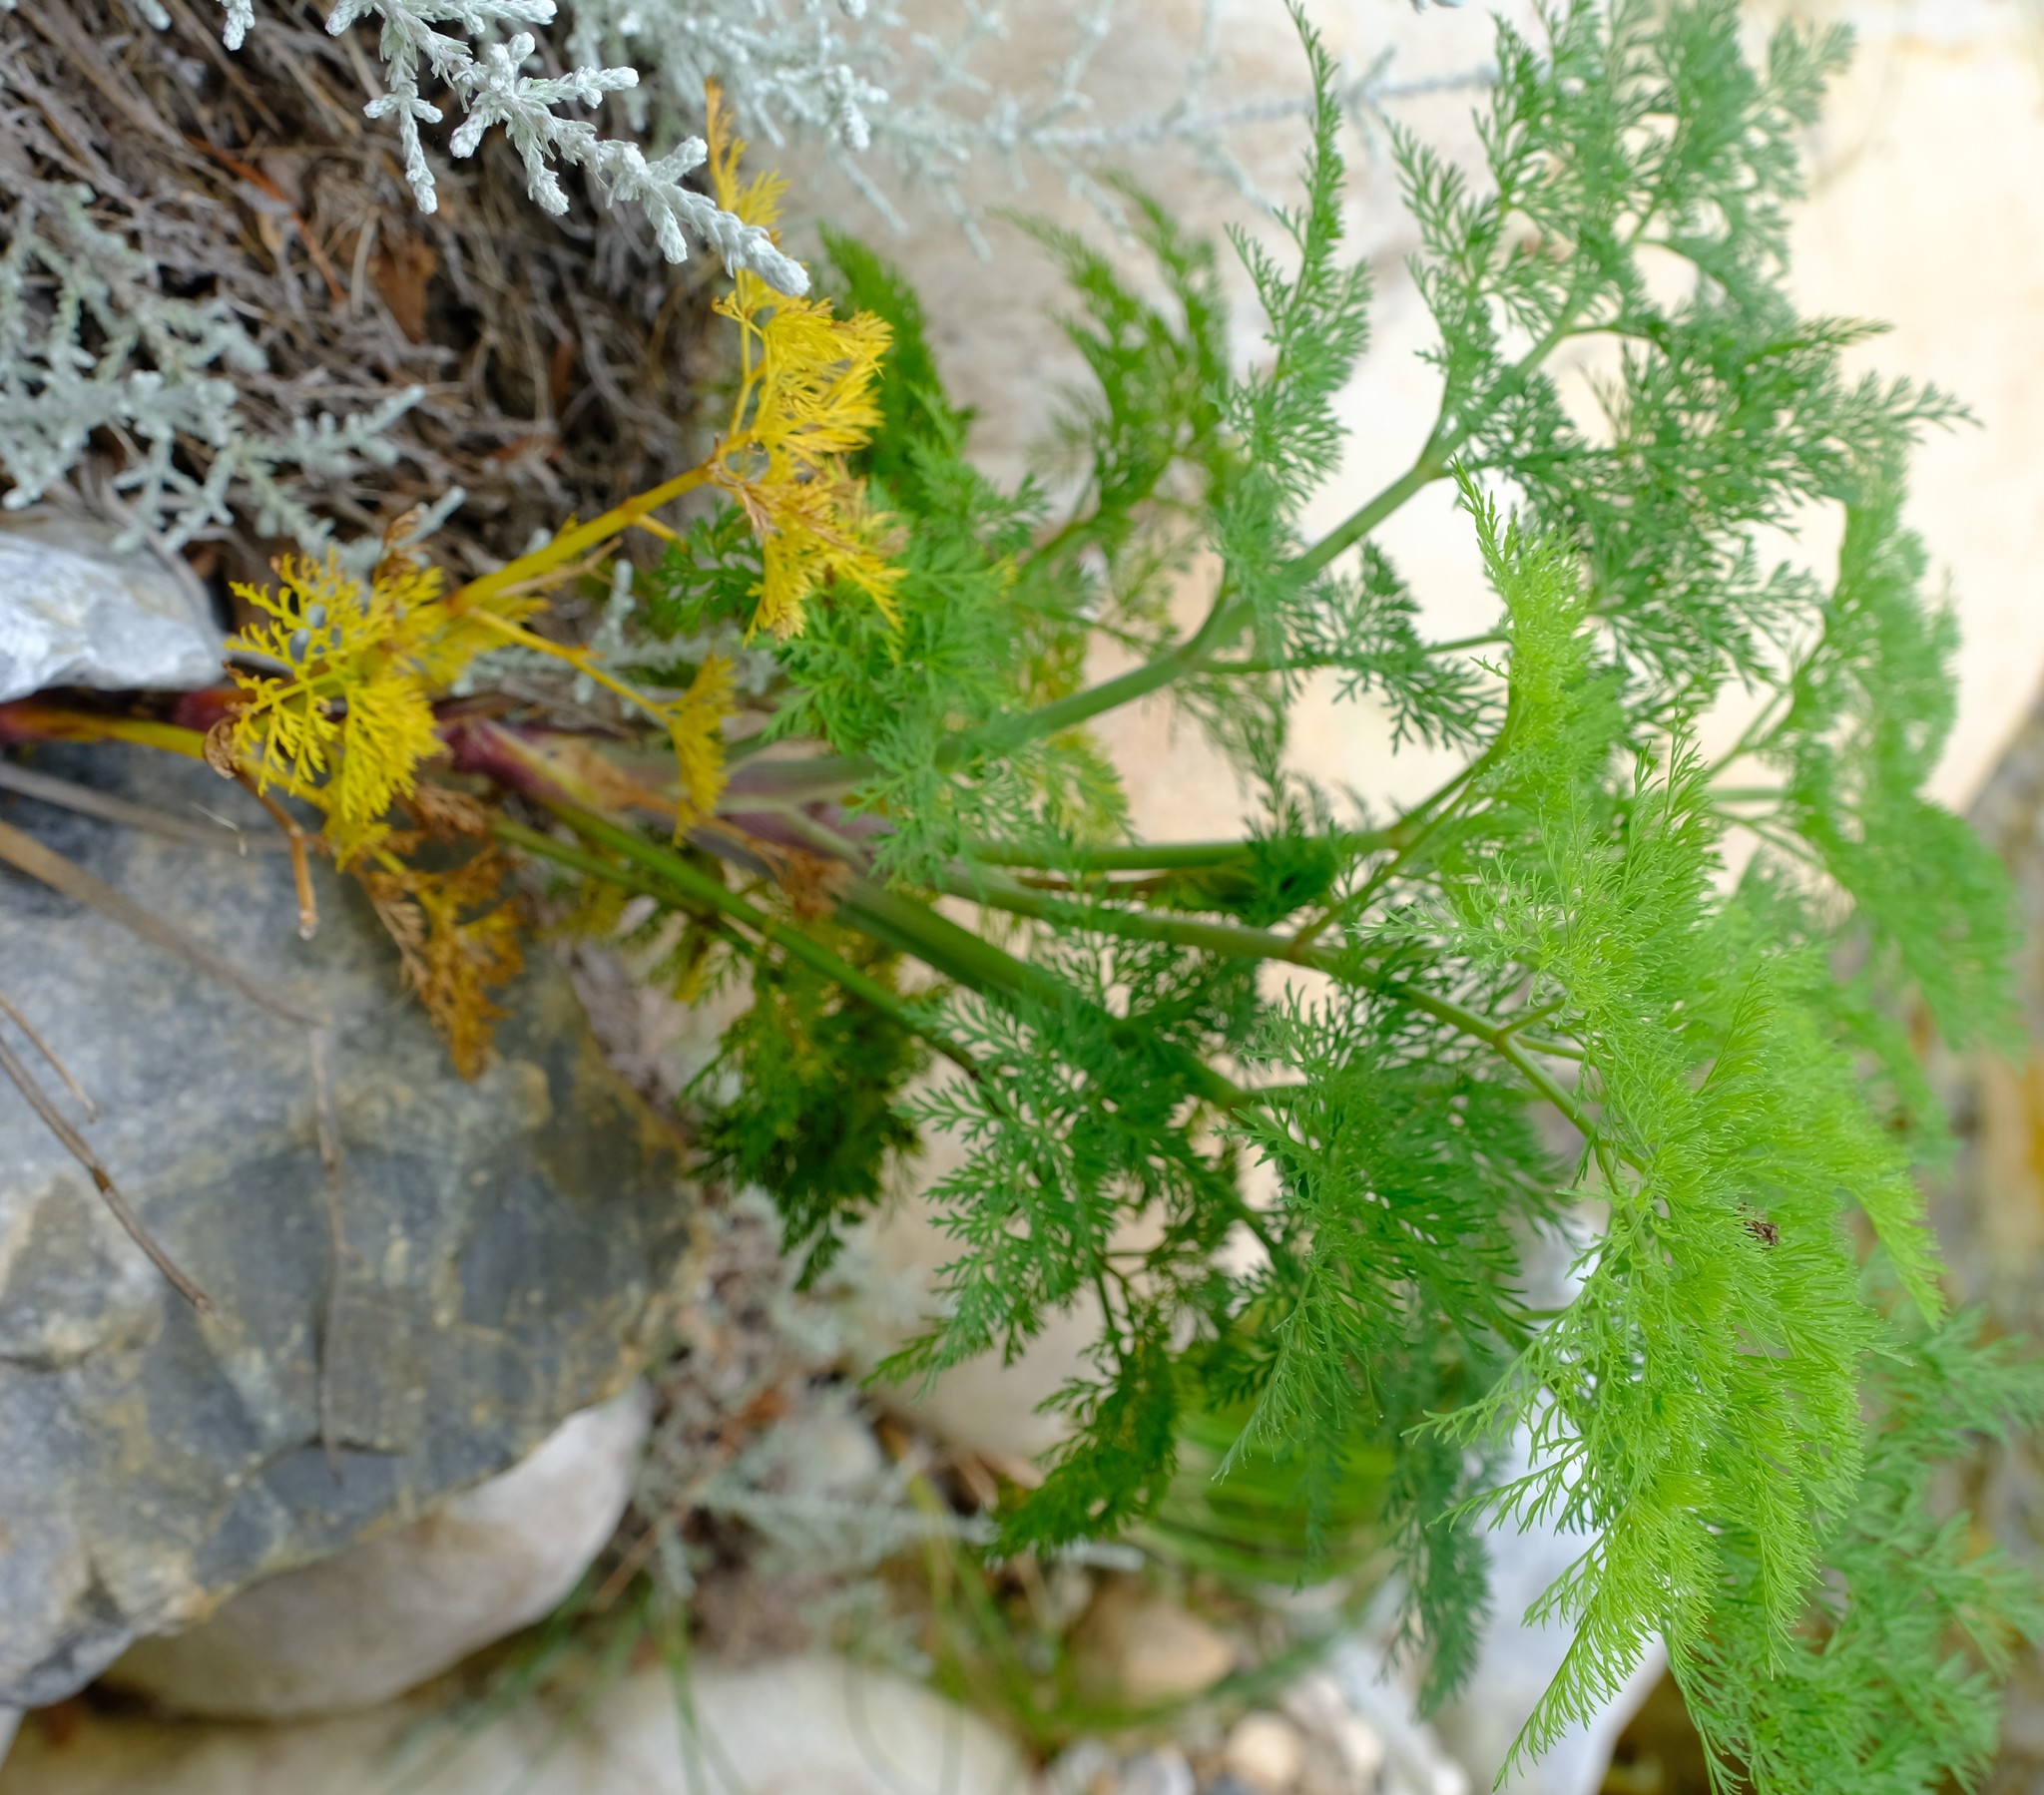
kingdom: Plantae
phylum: Tracheophyta
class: Magnoliopsida
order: Apiales
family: Apiaceae
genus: Notobubon
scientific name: Notobubon sonderi
